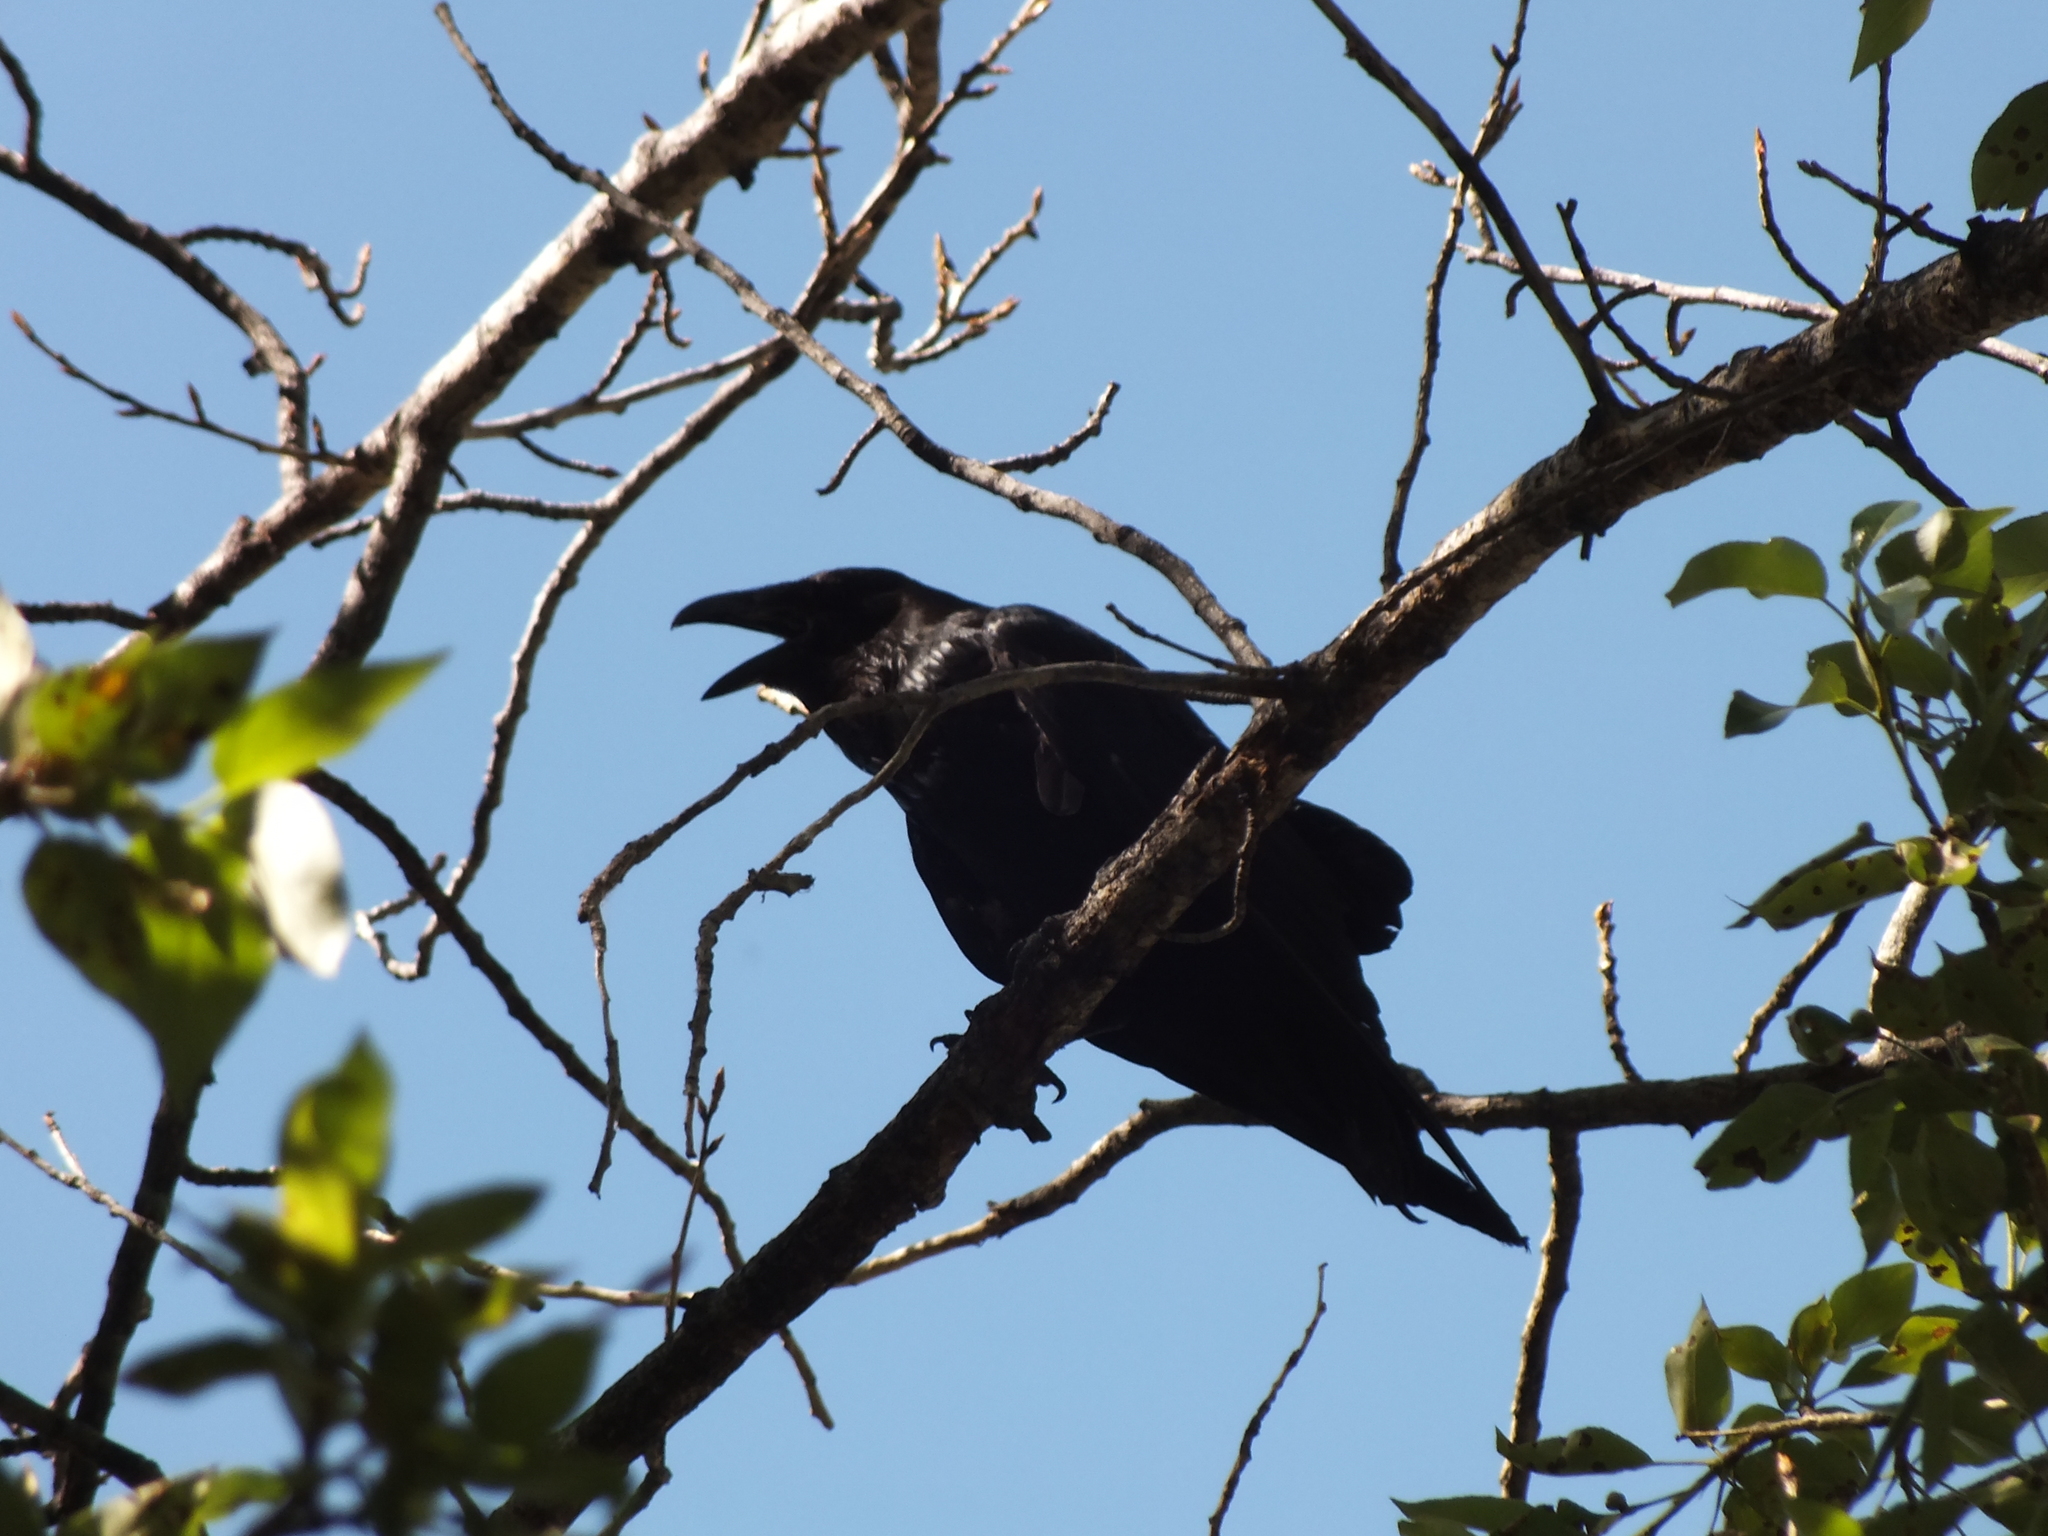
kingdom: Animalia
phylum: Chordata
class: Aves
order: Passeriformes
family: Corvidae
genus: Corvus
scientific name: Corvus corax
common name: Common raven
